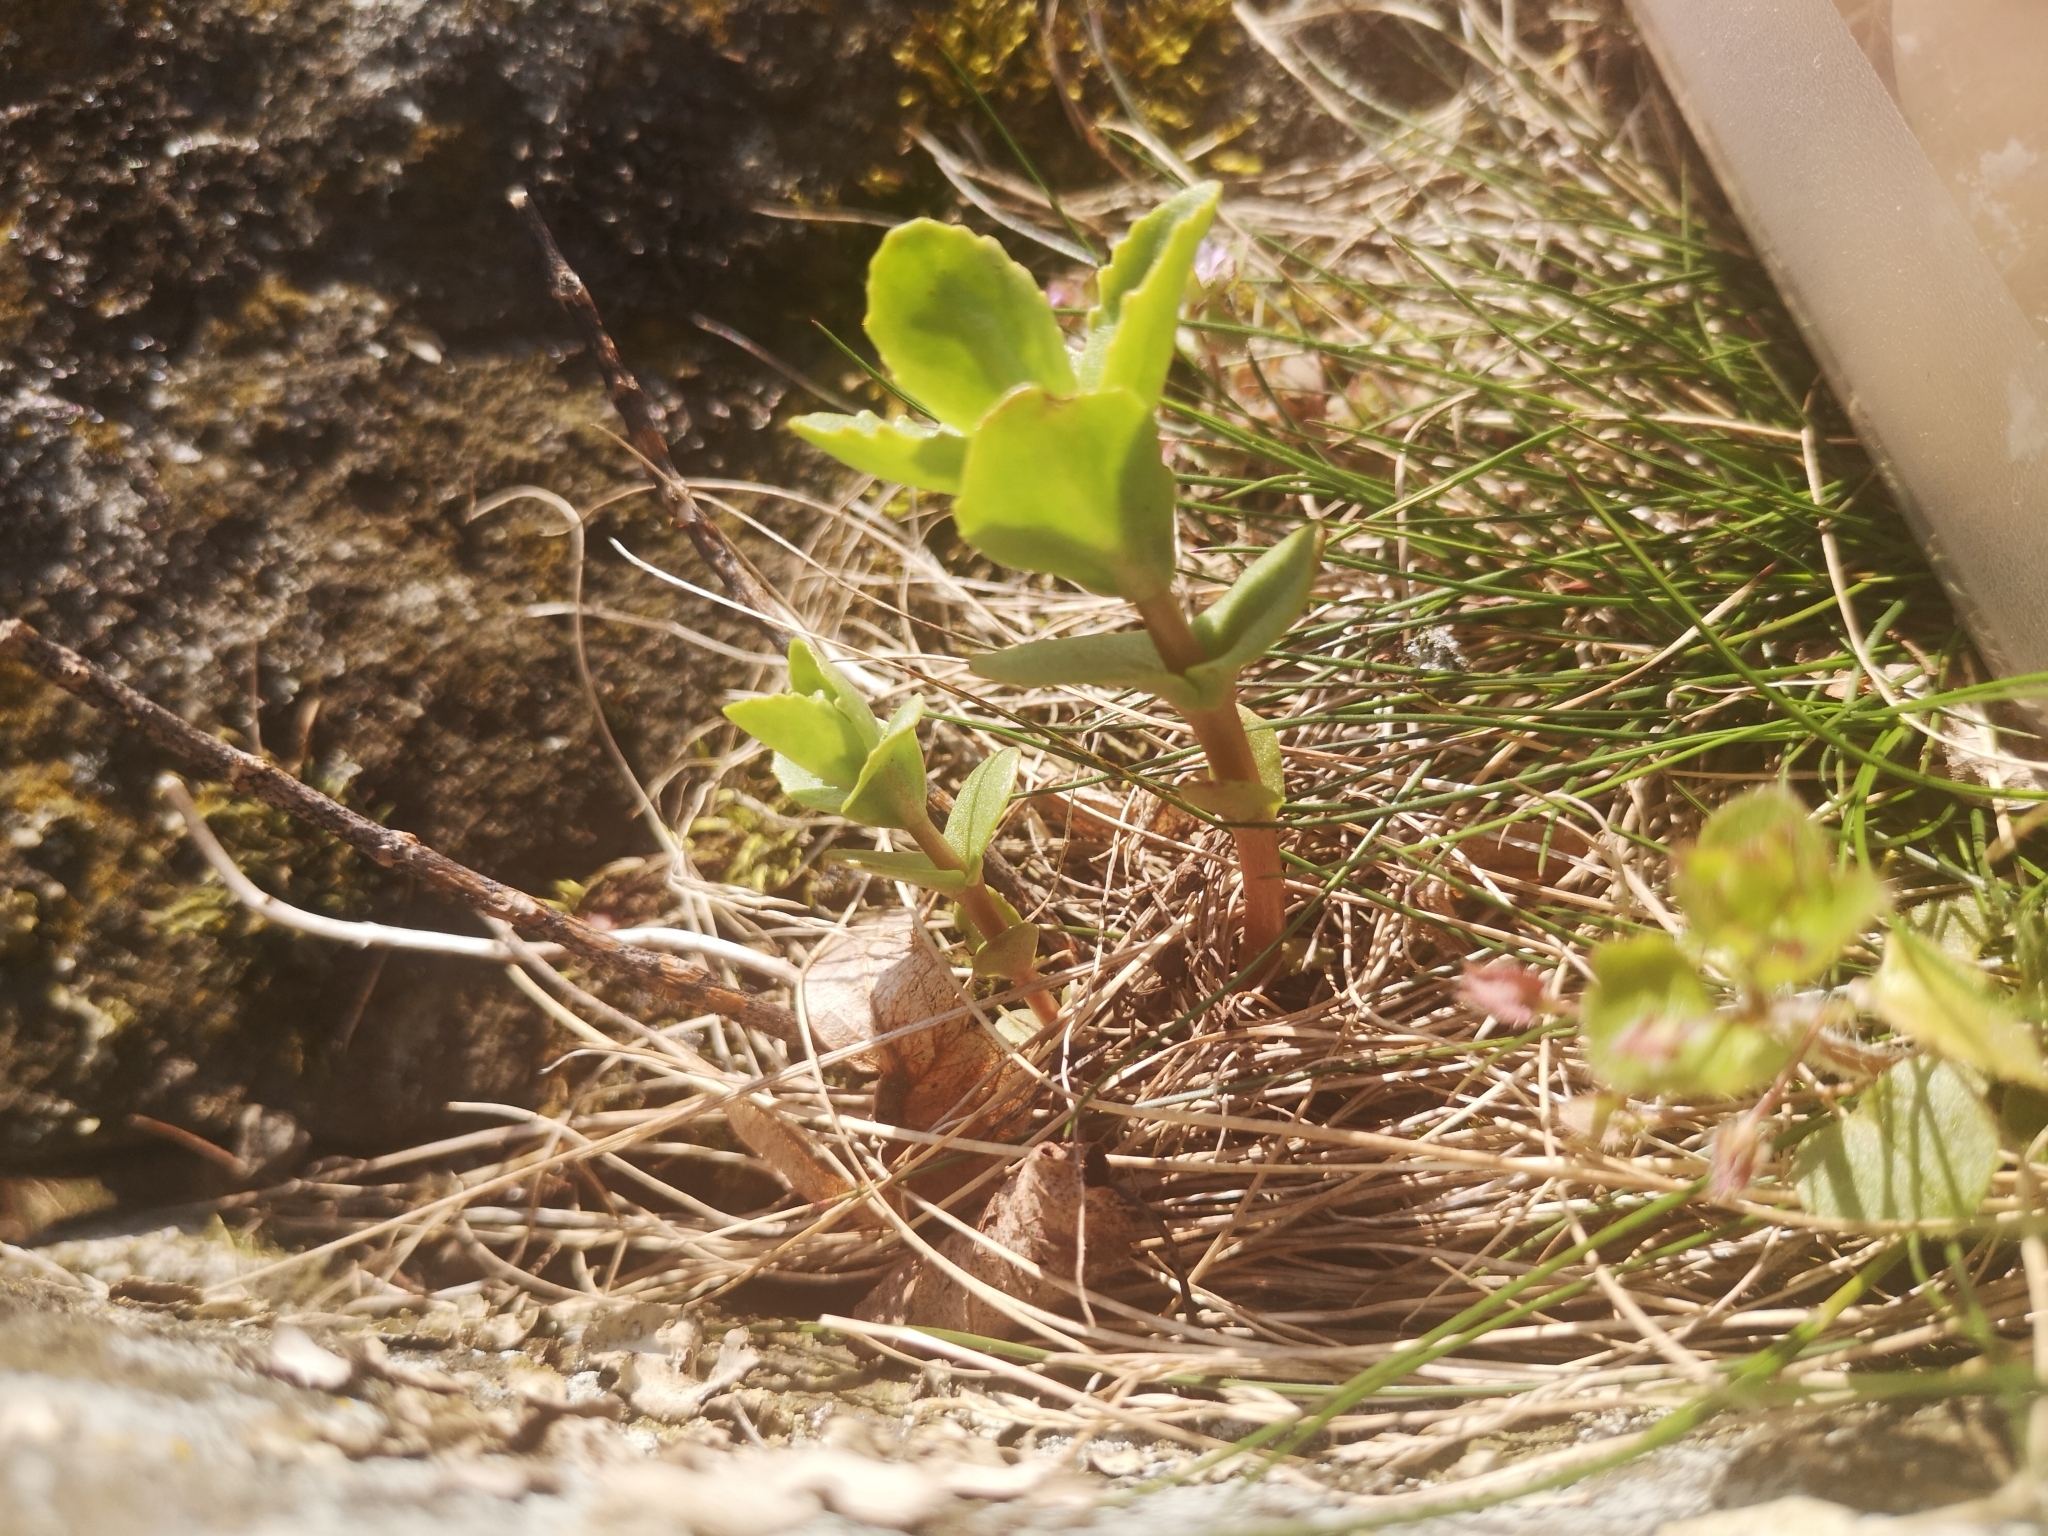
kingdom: Plantae
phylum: Tracheophyta
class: Magnoliopsida
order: Saxifragales
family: Crassulaceae
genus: Hylotelephium
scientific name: Hylotelephium maximum
